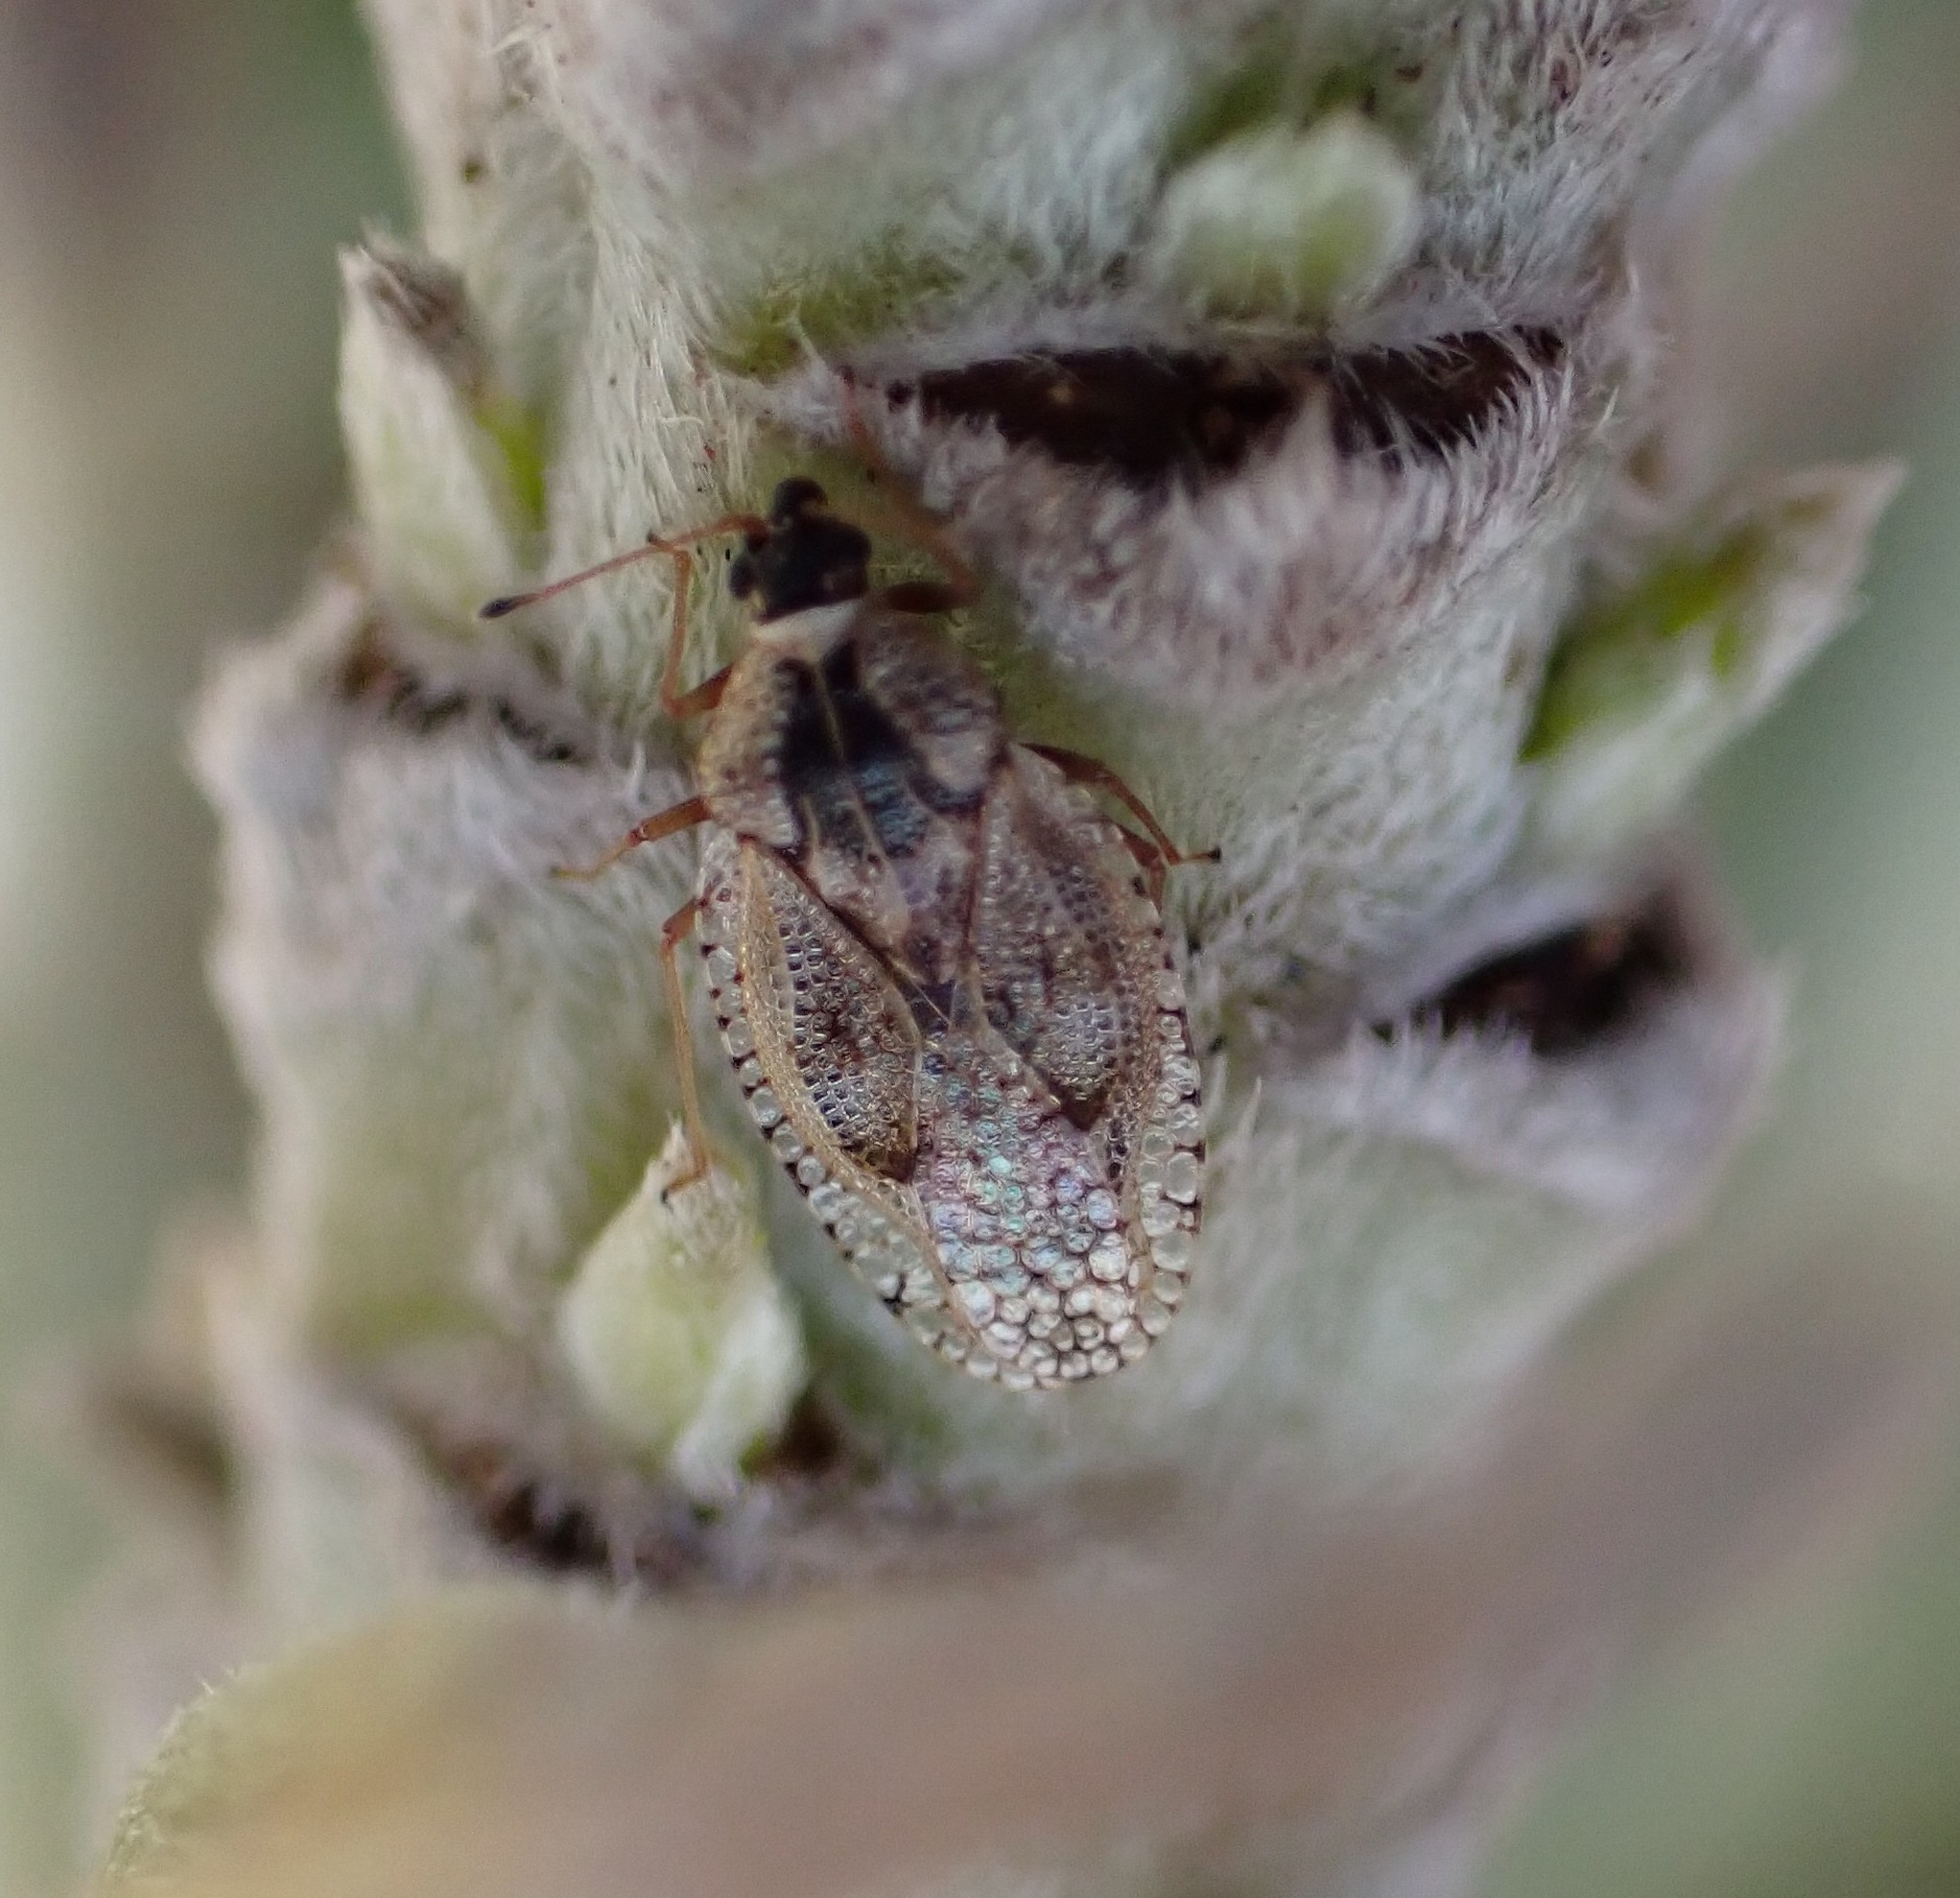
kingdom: Animalia
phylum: Arthropoda
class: Insecta
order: Hemiptera
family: Tingidae
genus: Dictyla
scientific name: Dictyla indigena
